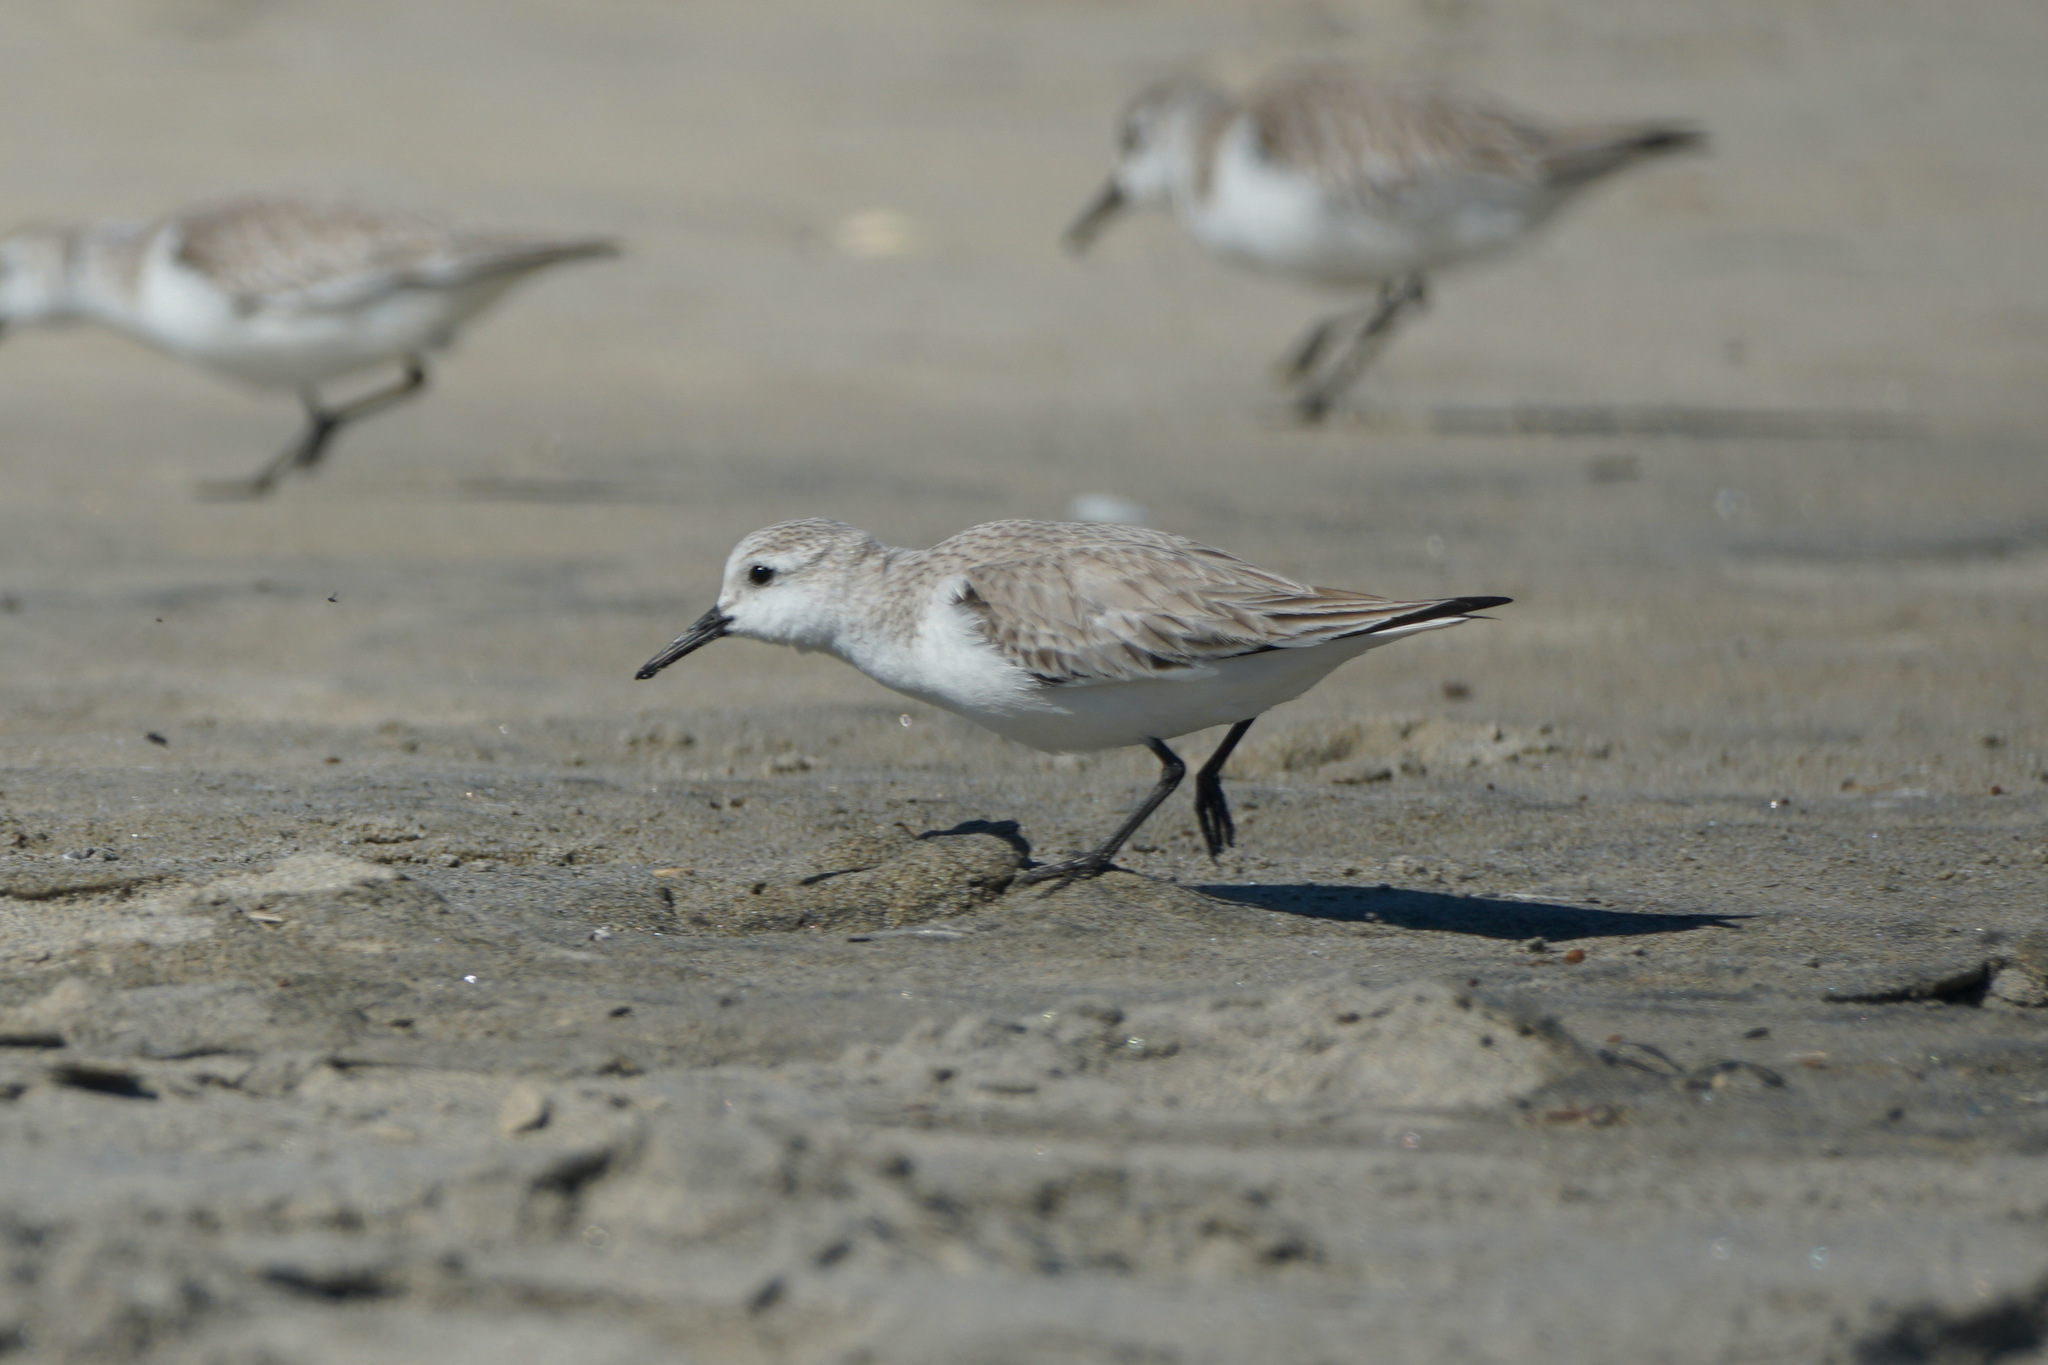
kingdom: Animalia
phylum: Chordata
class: Aves
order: Charadriiformes
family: Scolopacidae
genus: Calidris
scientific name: Calidris alba
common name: Sanderling
